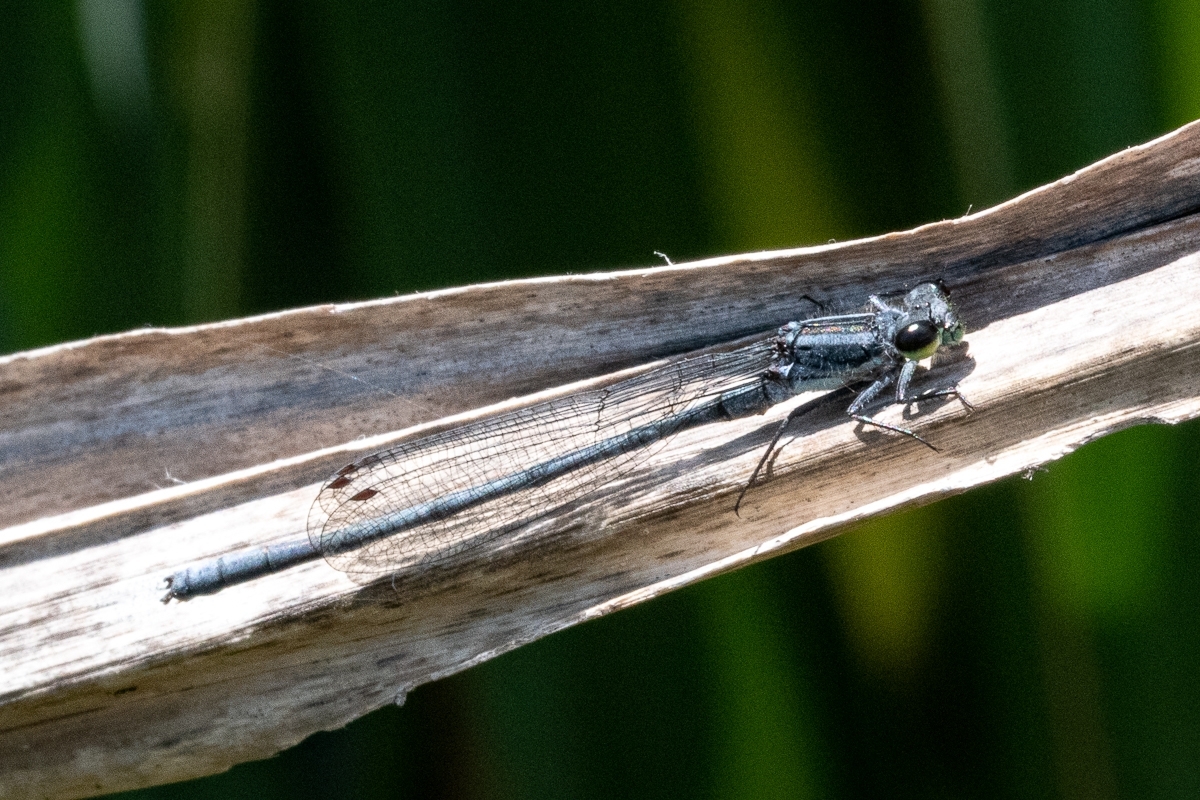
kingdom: Animalia
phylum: Arthropoda
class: Insecta
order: Odonata
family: Coenagrionidae
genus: Pseudagrion
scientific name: Pseudagrion furcigerum
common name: Palmiet sprite
